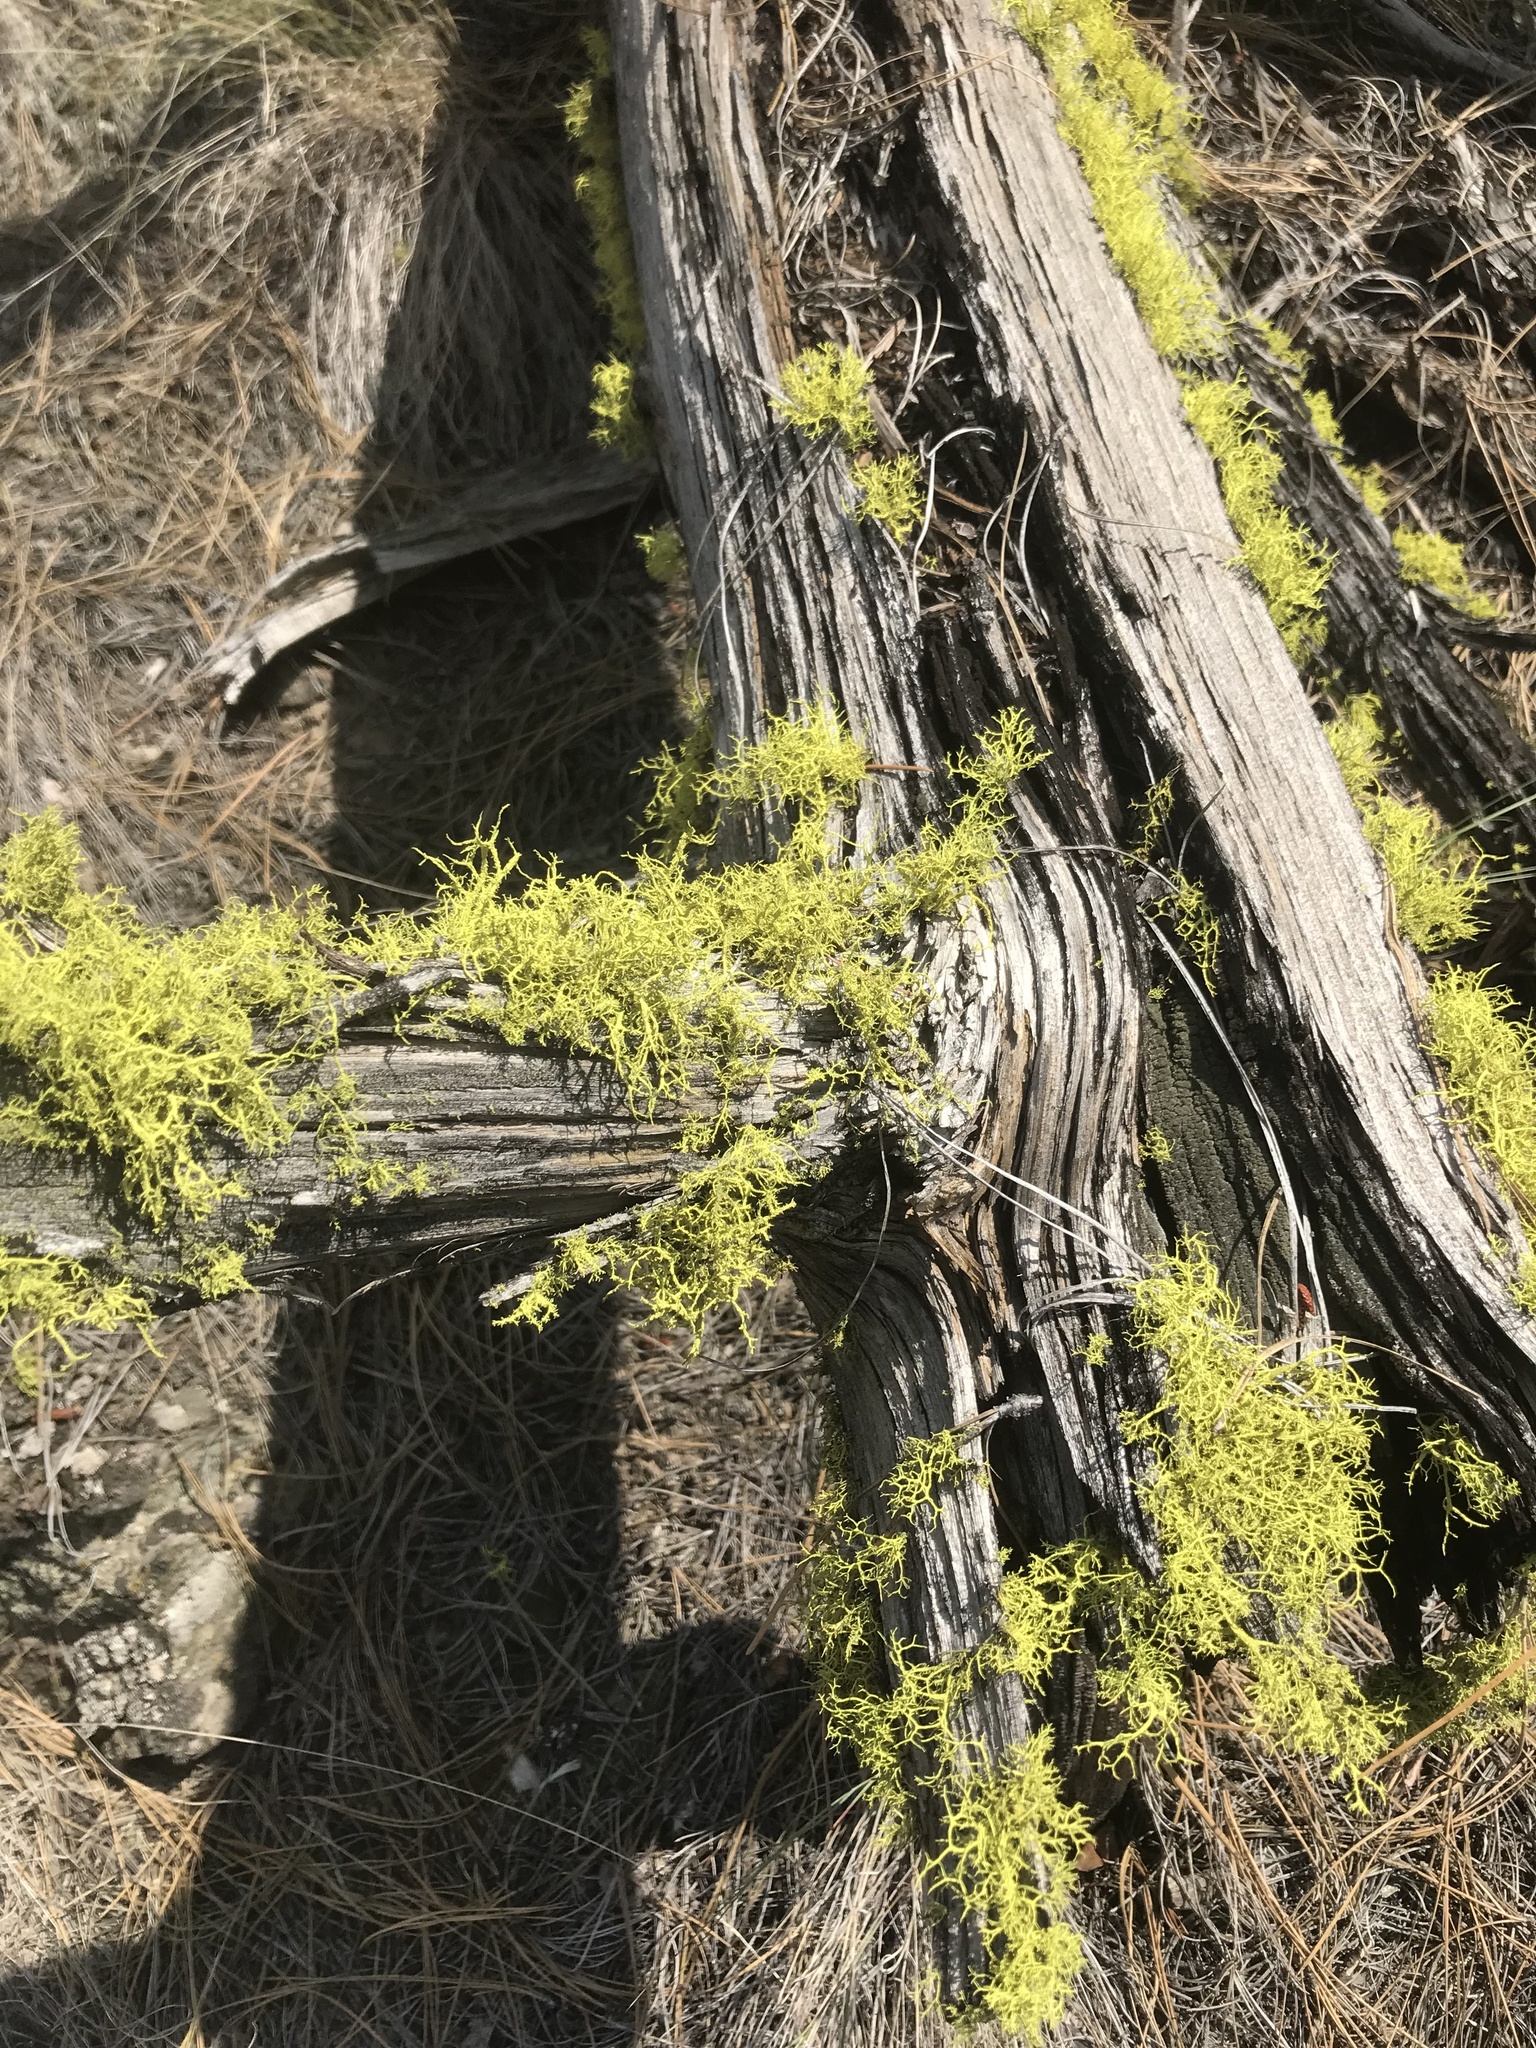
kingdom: Fungi
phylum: Ascomycota
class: Lecanoromycetes
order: Lecanorales
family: Parmeliaceae
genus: Letharia
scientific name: Letharia vulpina
